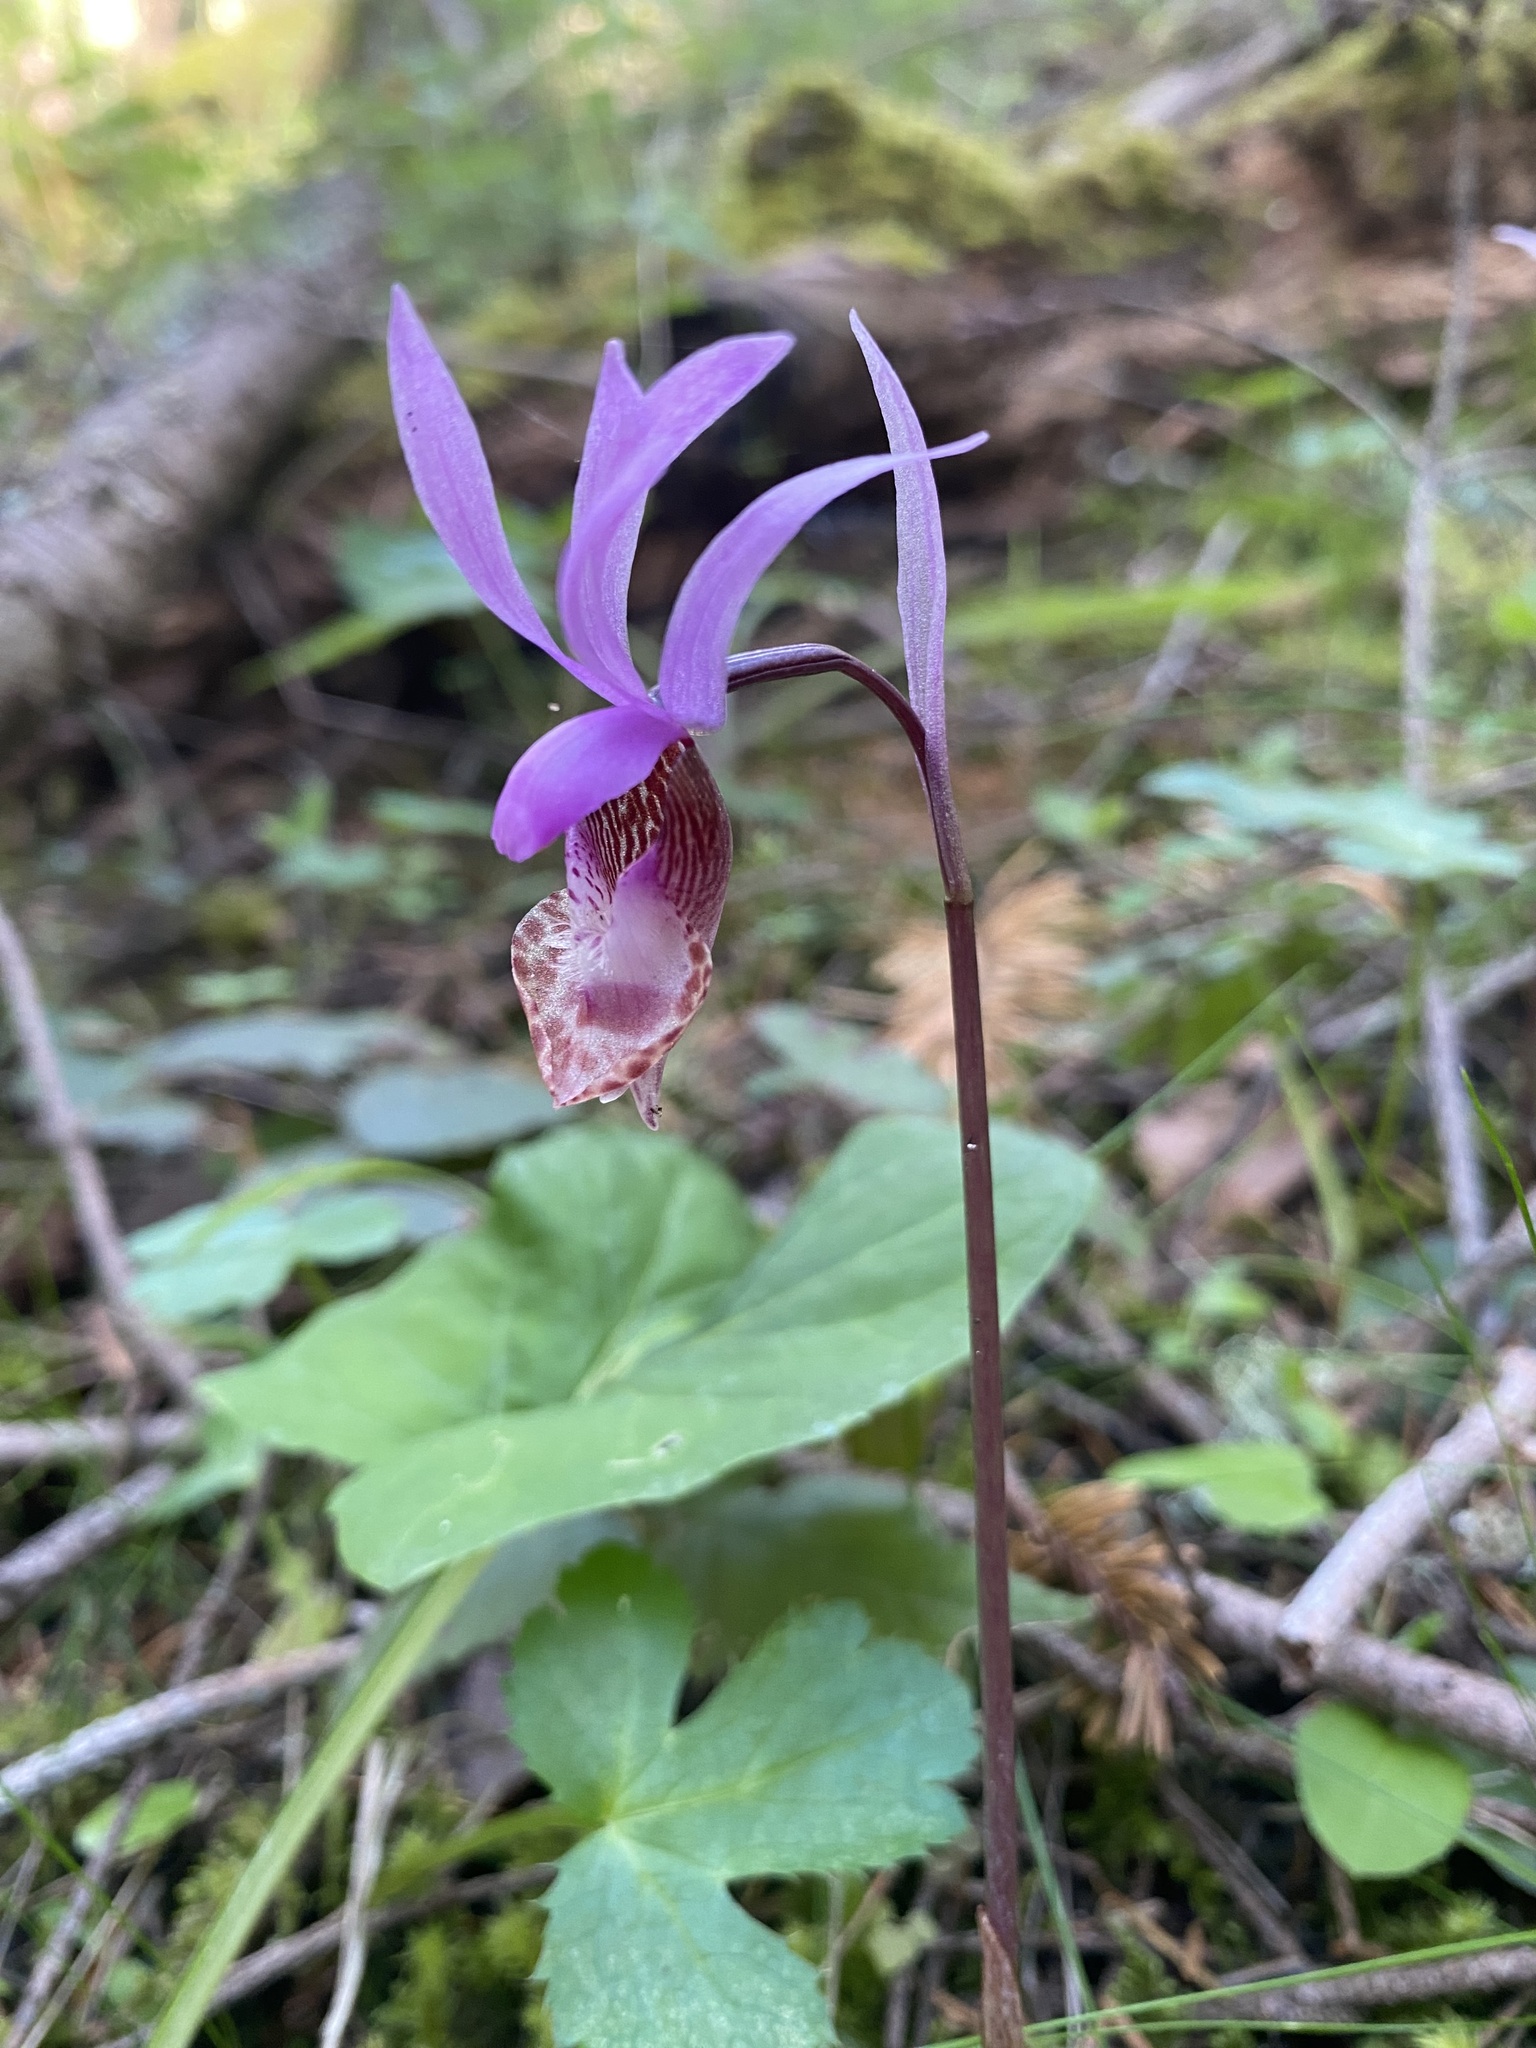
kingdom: Plantae
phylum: Tracheophyta
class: Liliopsida
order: Asparagales
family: Orchidaceae
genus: Calypso
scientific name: Calypso bulbosa
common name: Calypso
